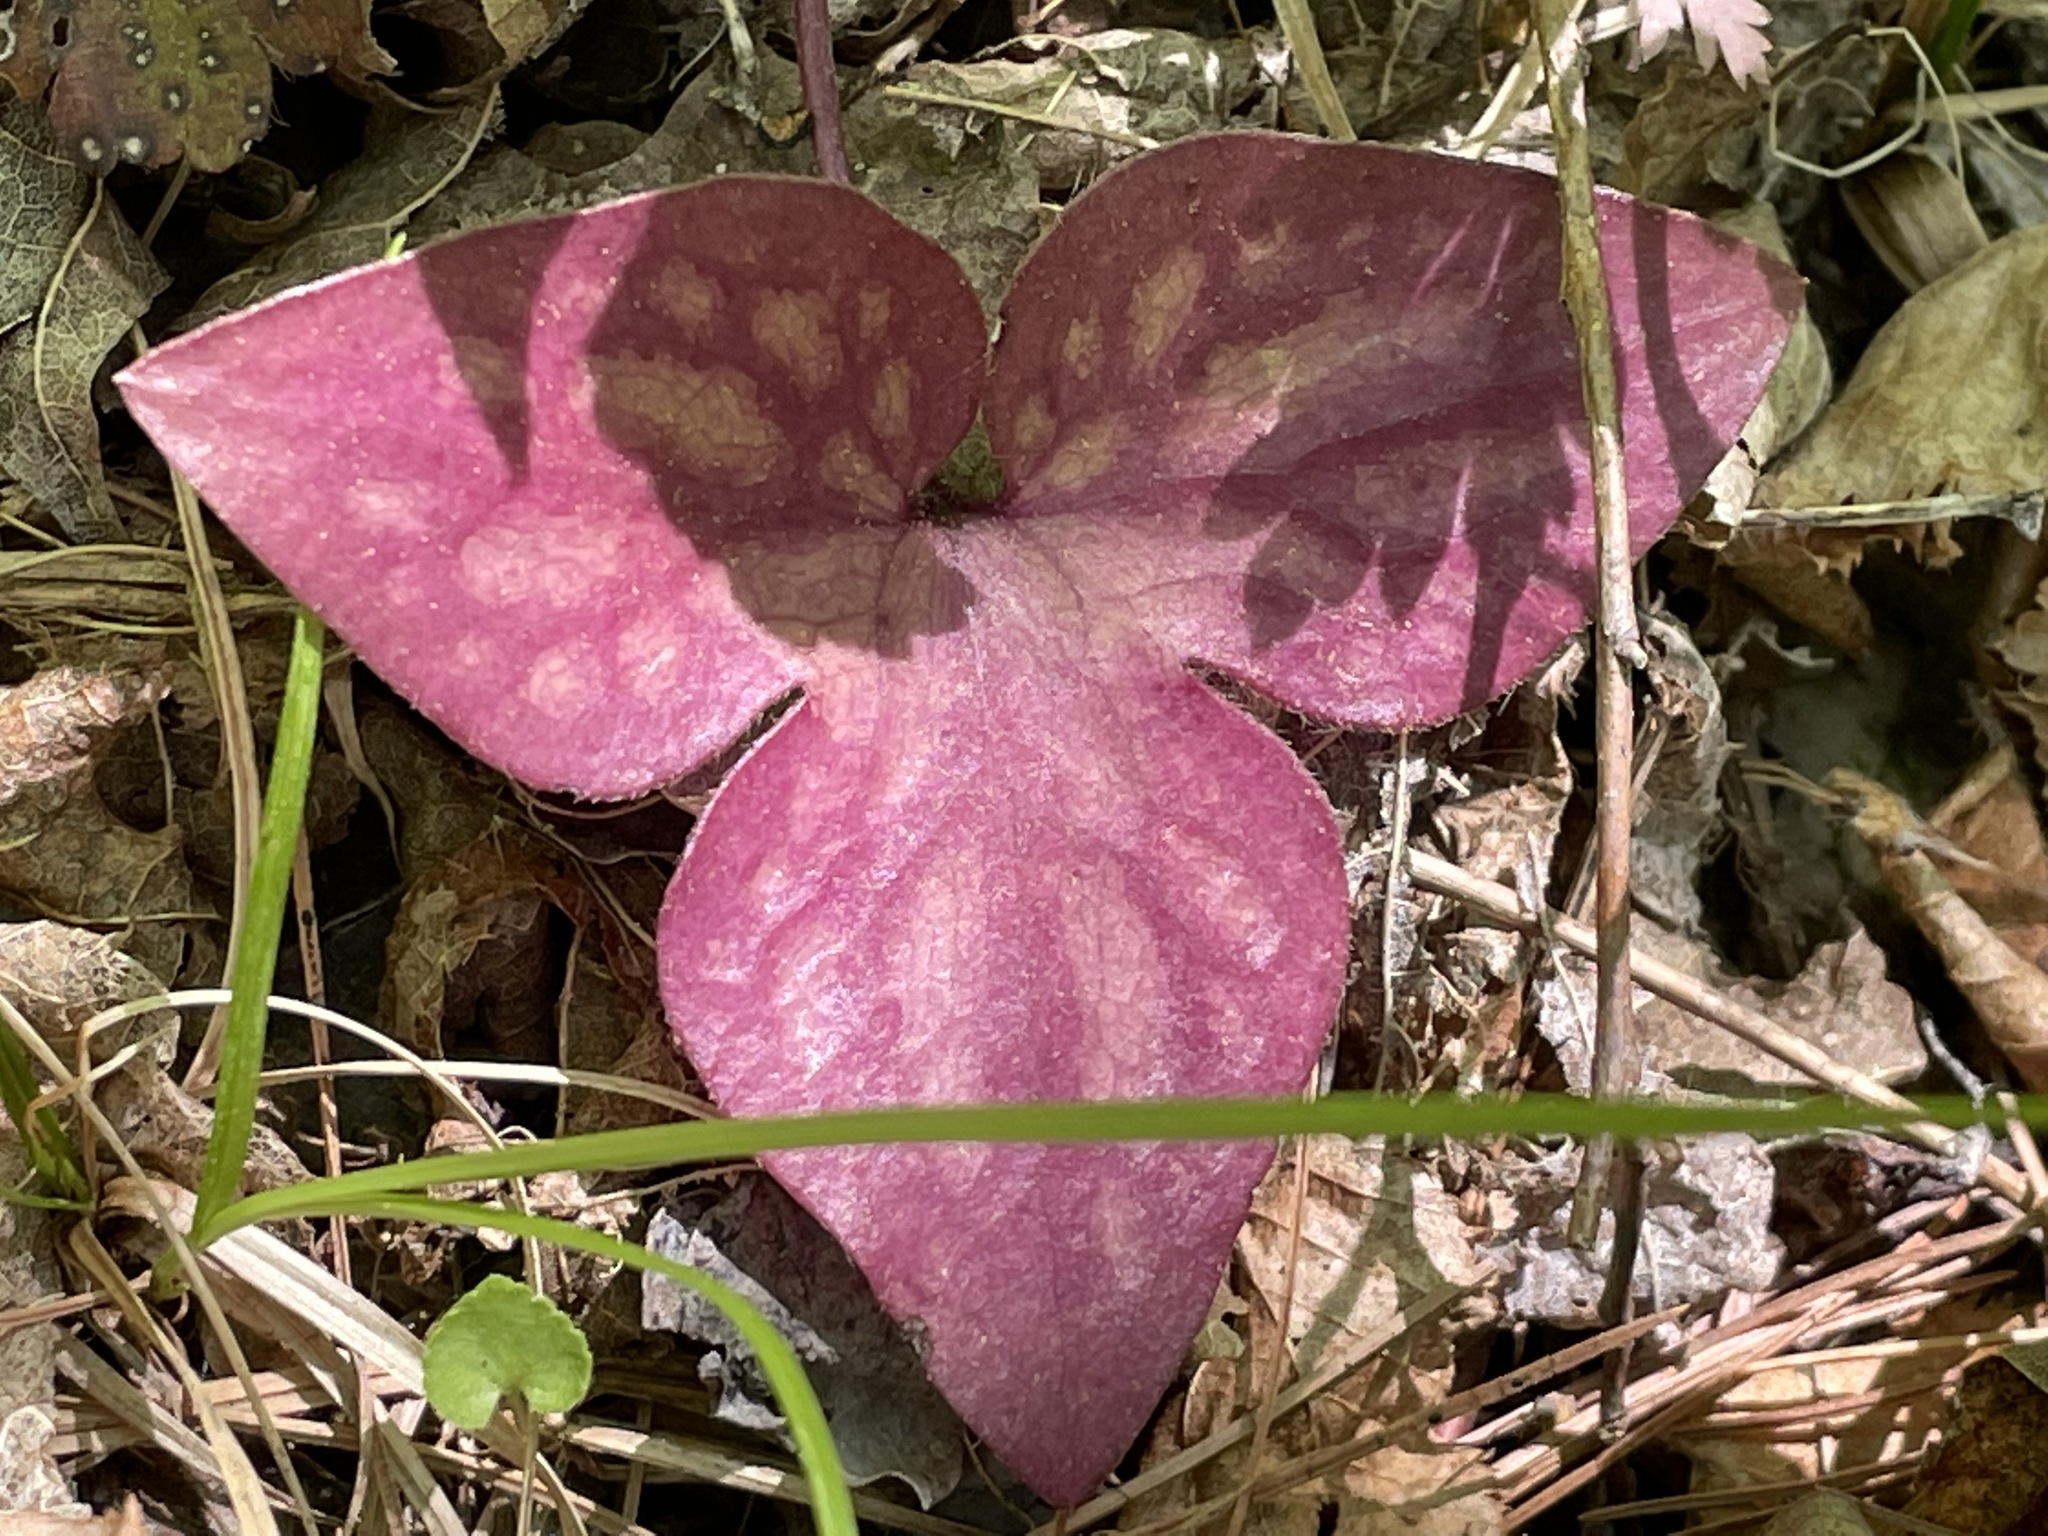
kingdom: Plantae
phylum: Tracheophyta
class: Magnoliopsida
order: Ranunculales
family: Ranunculaceae
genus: Hepatica
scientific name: Hepatica acutiloba
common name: Sharp-lobed hepatica
